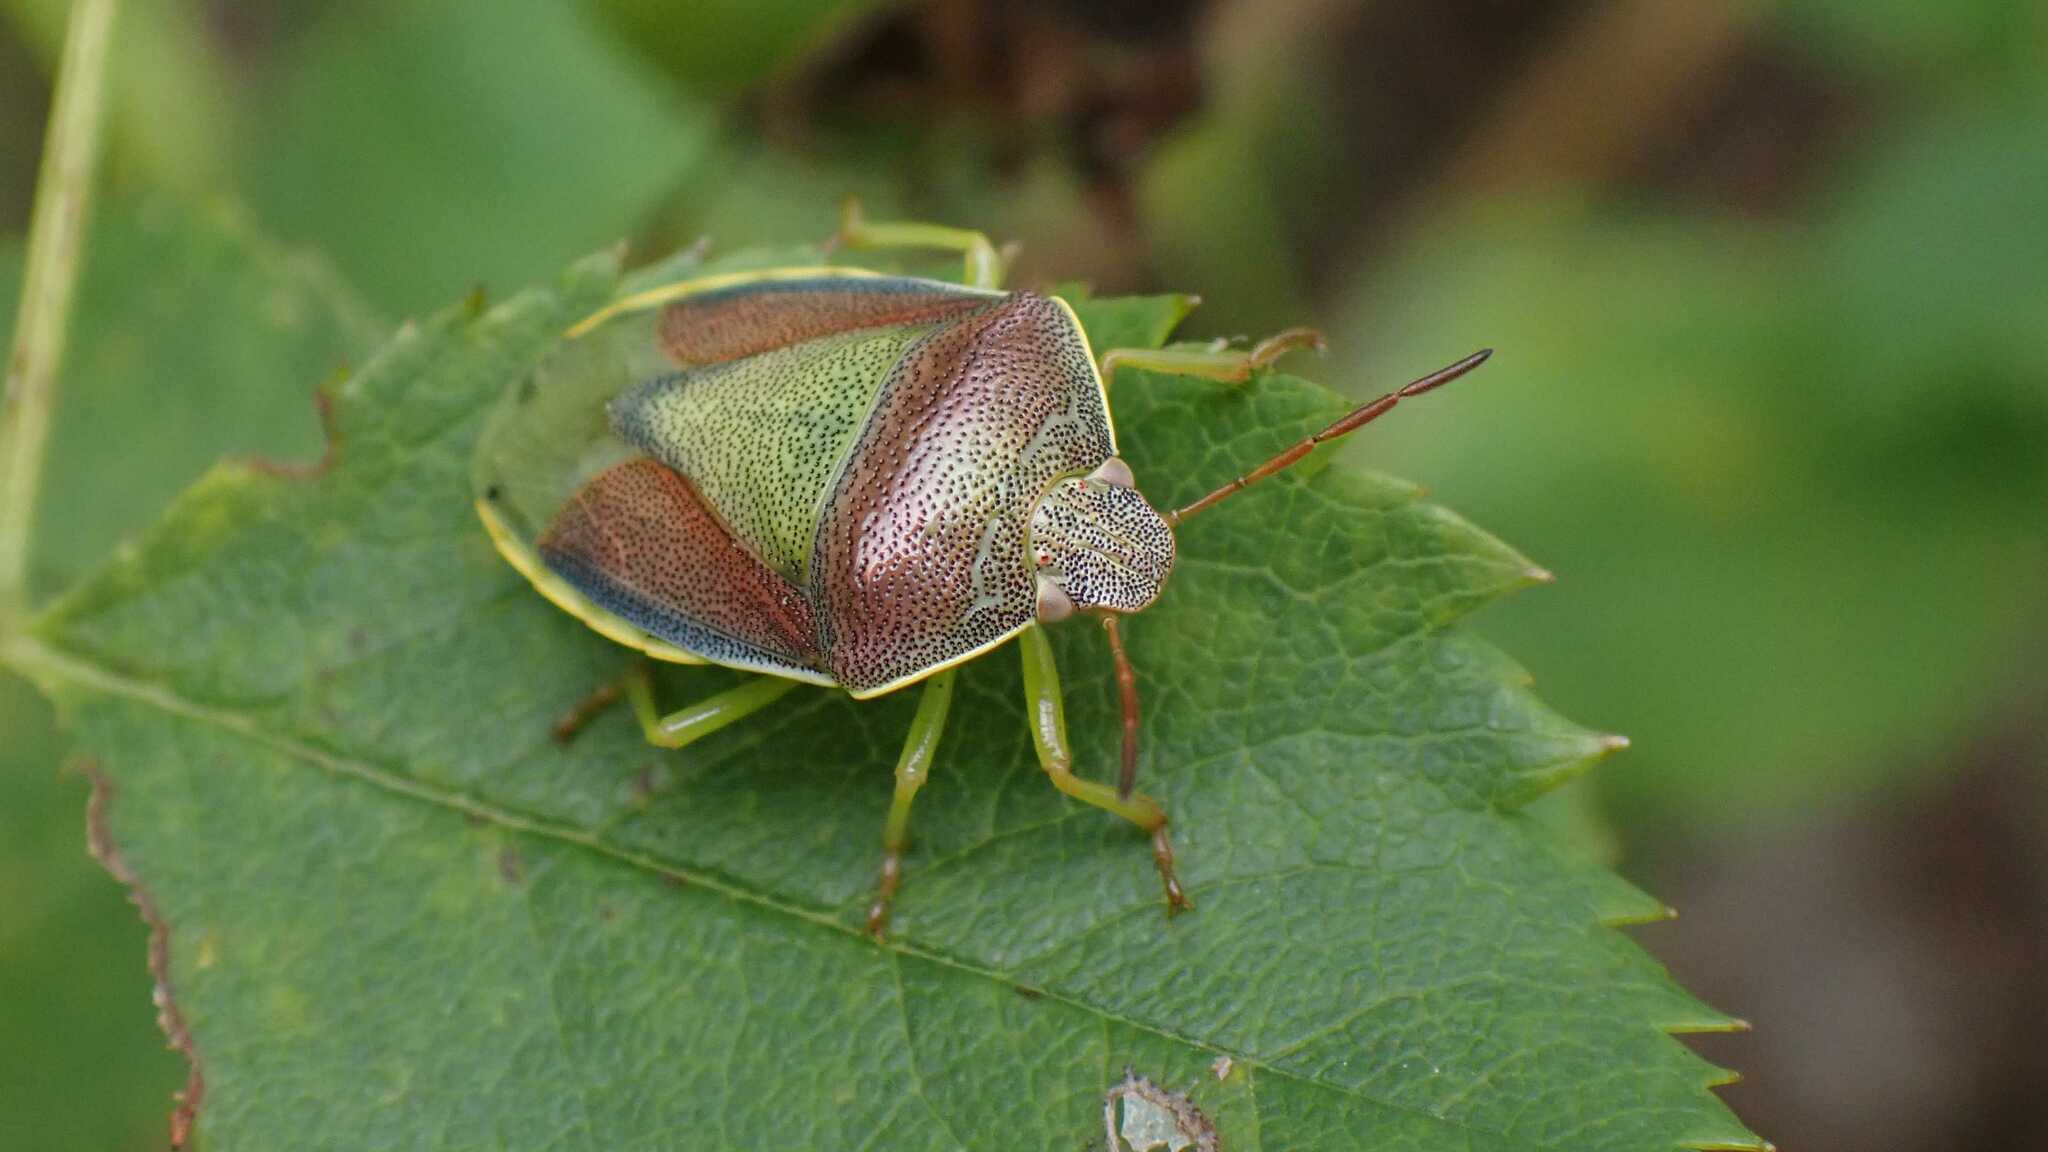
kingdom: Animalia
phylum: Arthropoda
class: Insecta
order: Hemiptera
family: Pentatomidae
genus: Piezodorus
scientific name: Piezodorus lituratus
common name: Stink bug
